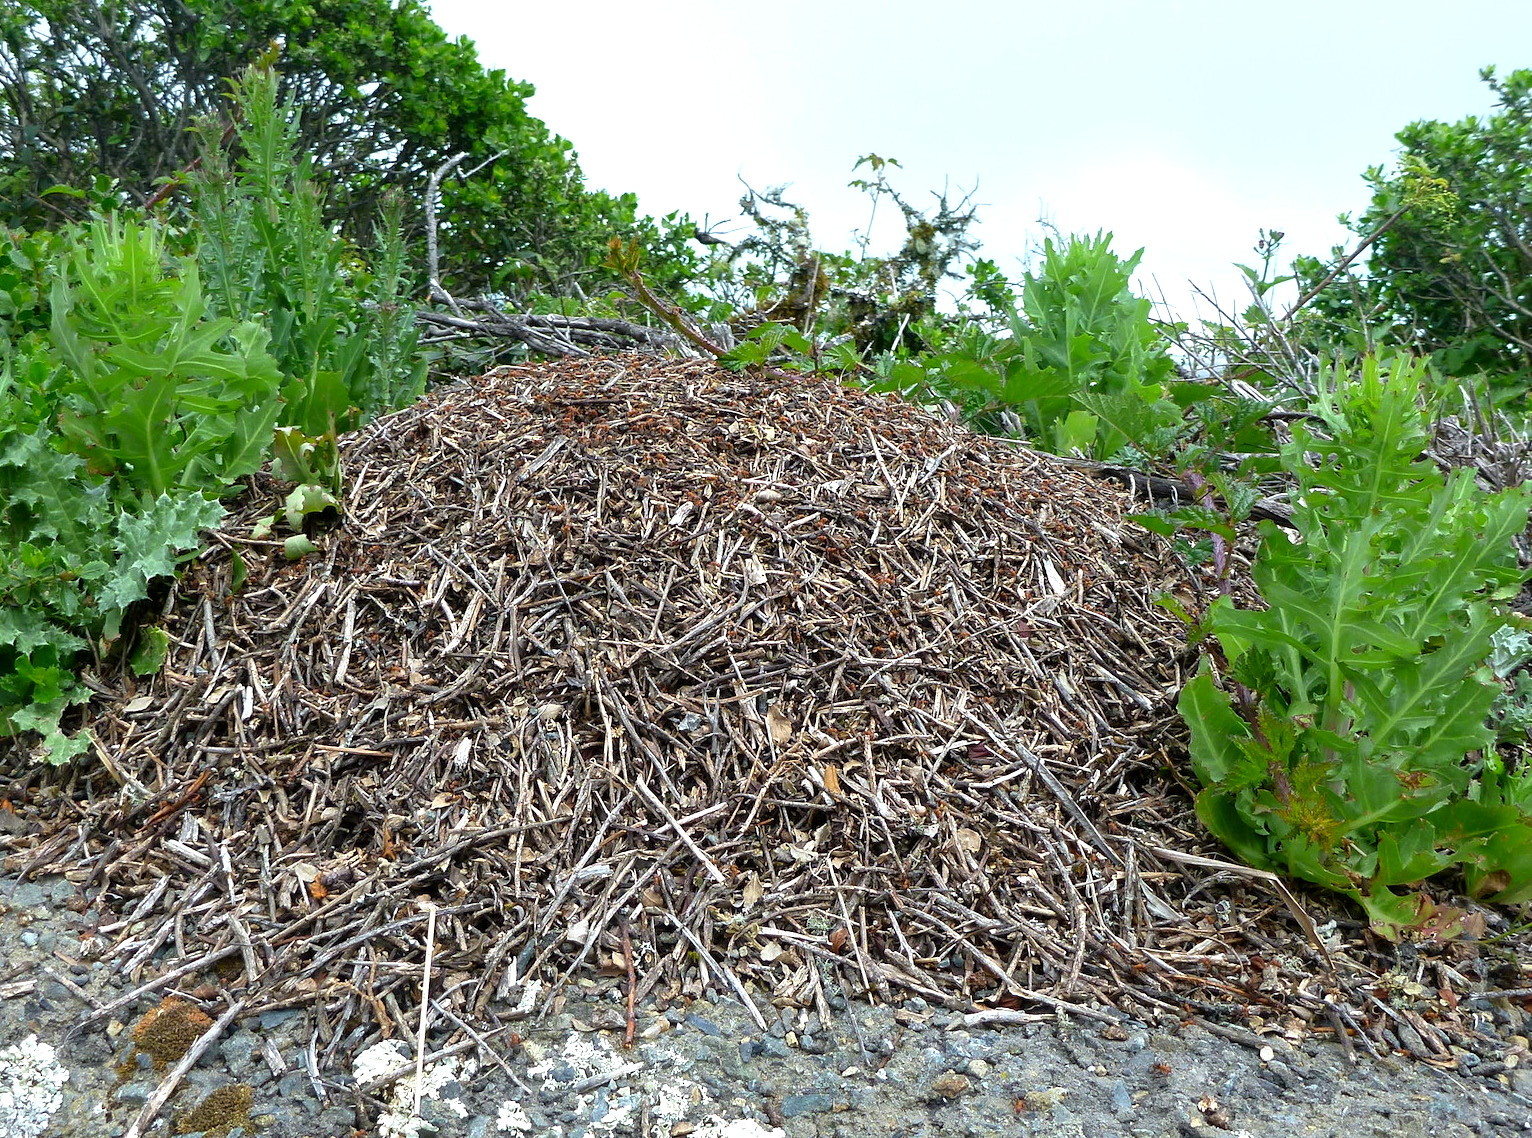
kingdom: Animalia
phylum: Arthropoda
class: Insecta
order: Hymenoptera
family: Formicidae
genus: Formica
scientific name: Formica integroides
